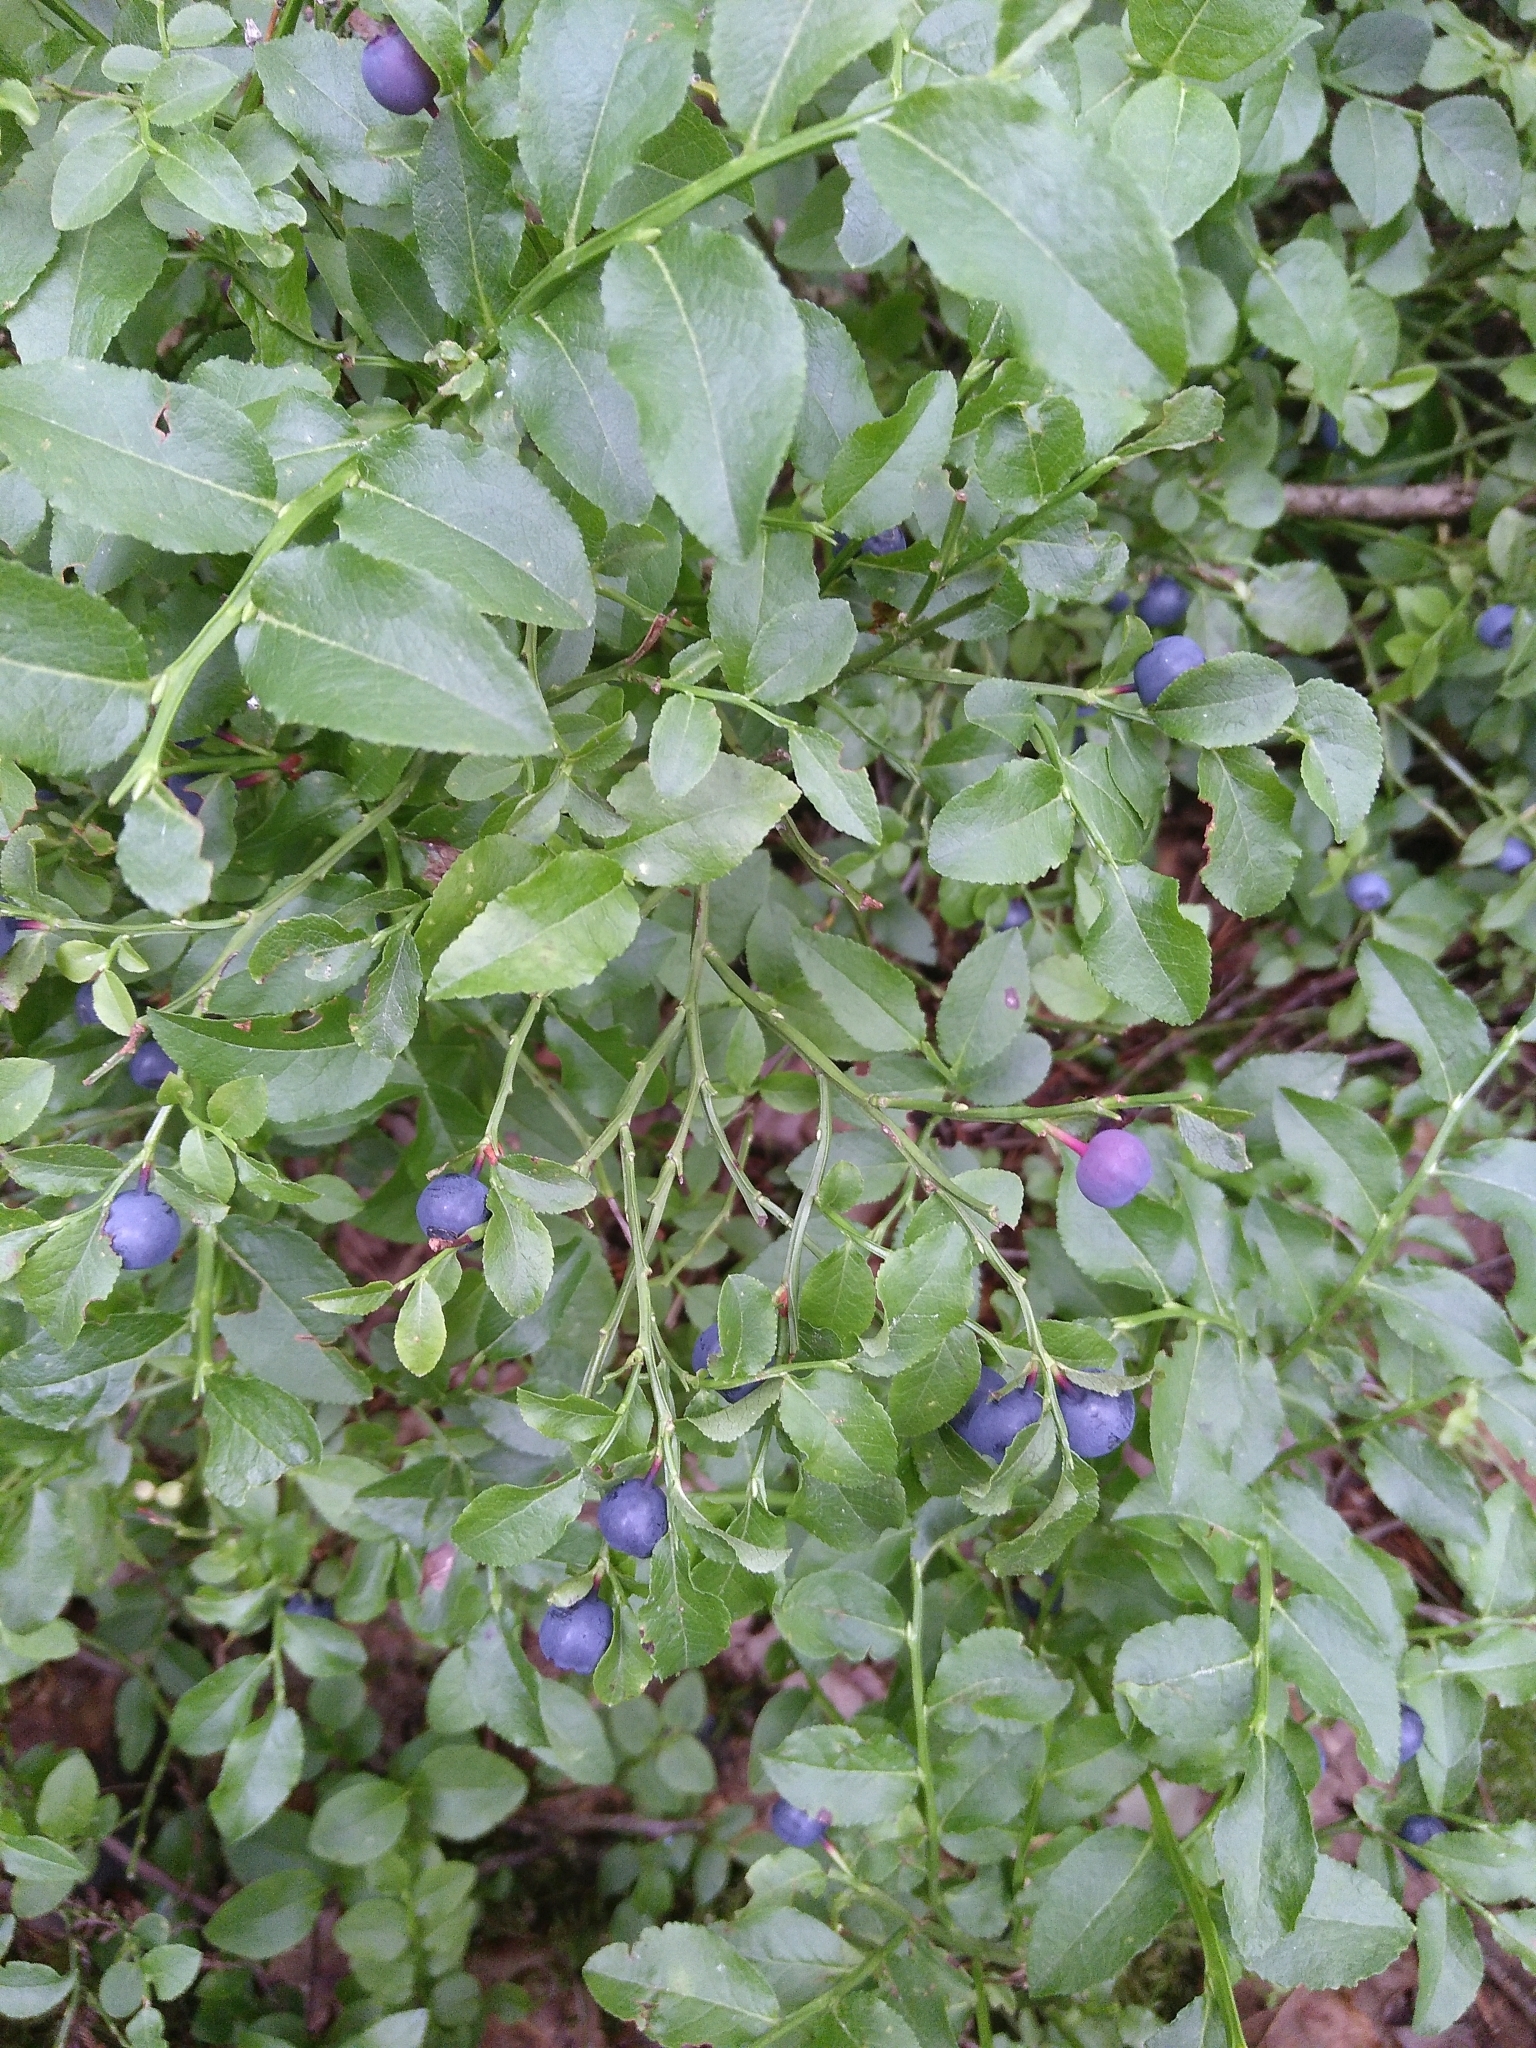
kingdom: Plantae
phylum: Tracheophyta
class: Magnoliopsida
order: Ericales
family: Ericaceae
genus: Vaccinium
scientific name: Vaccinium myrtillus
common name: Bilberry
